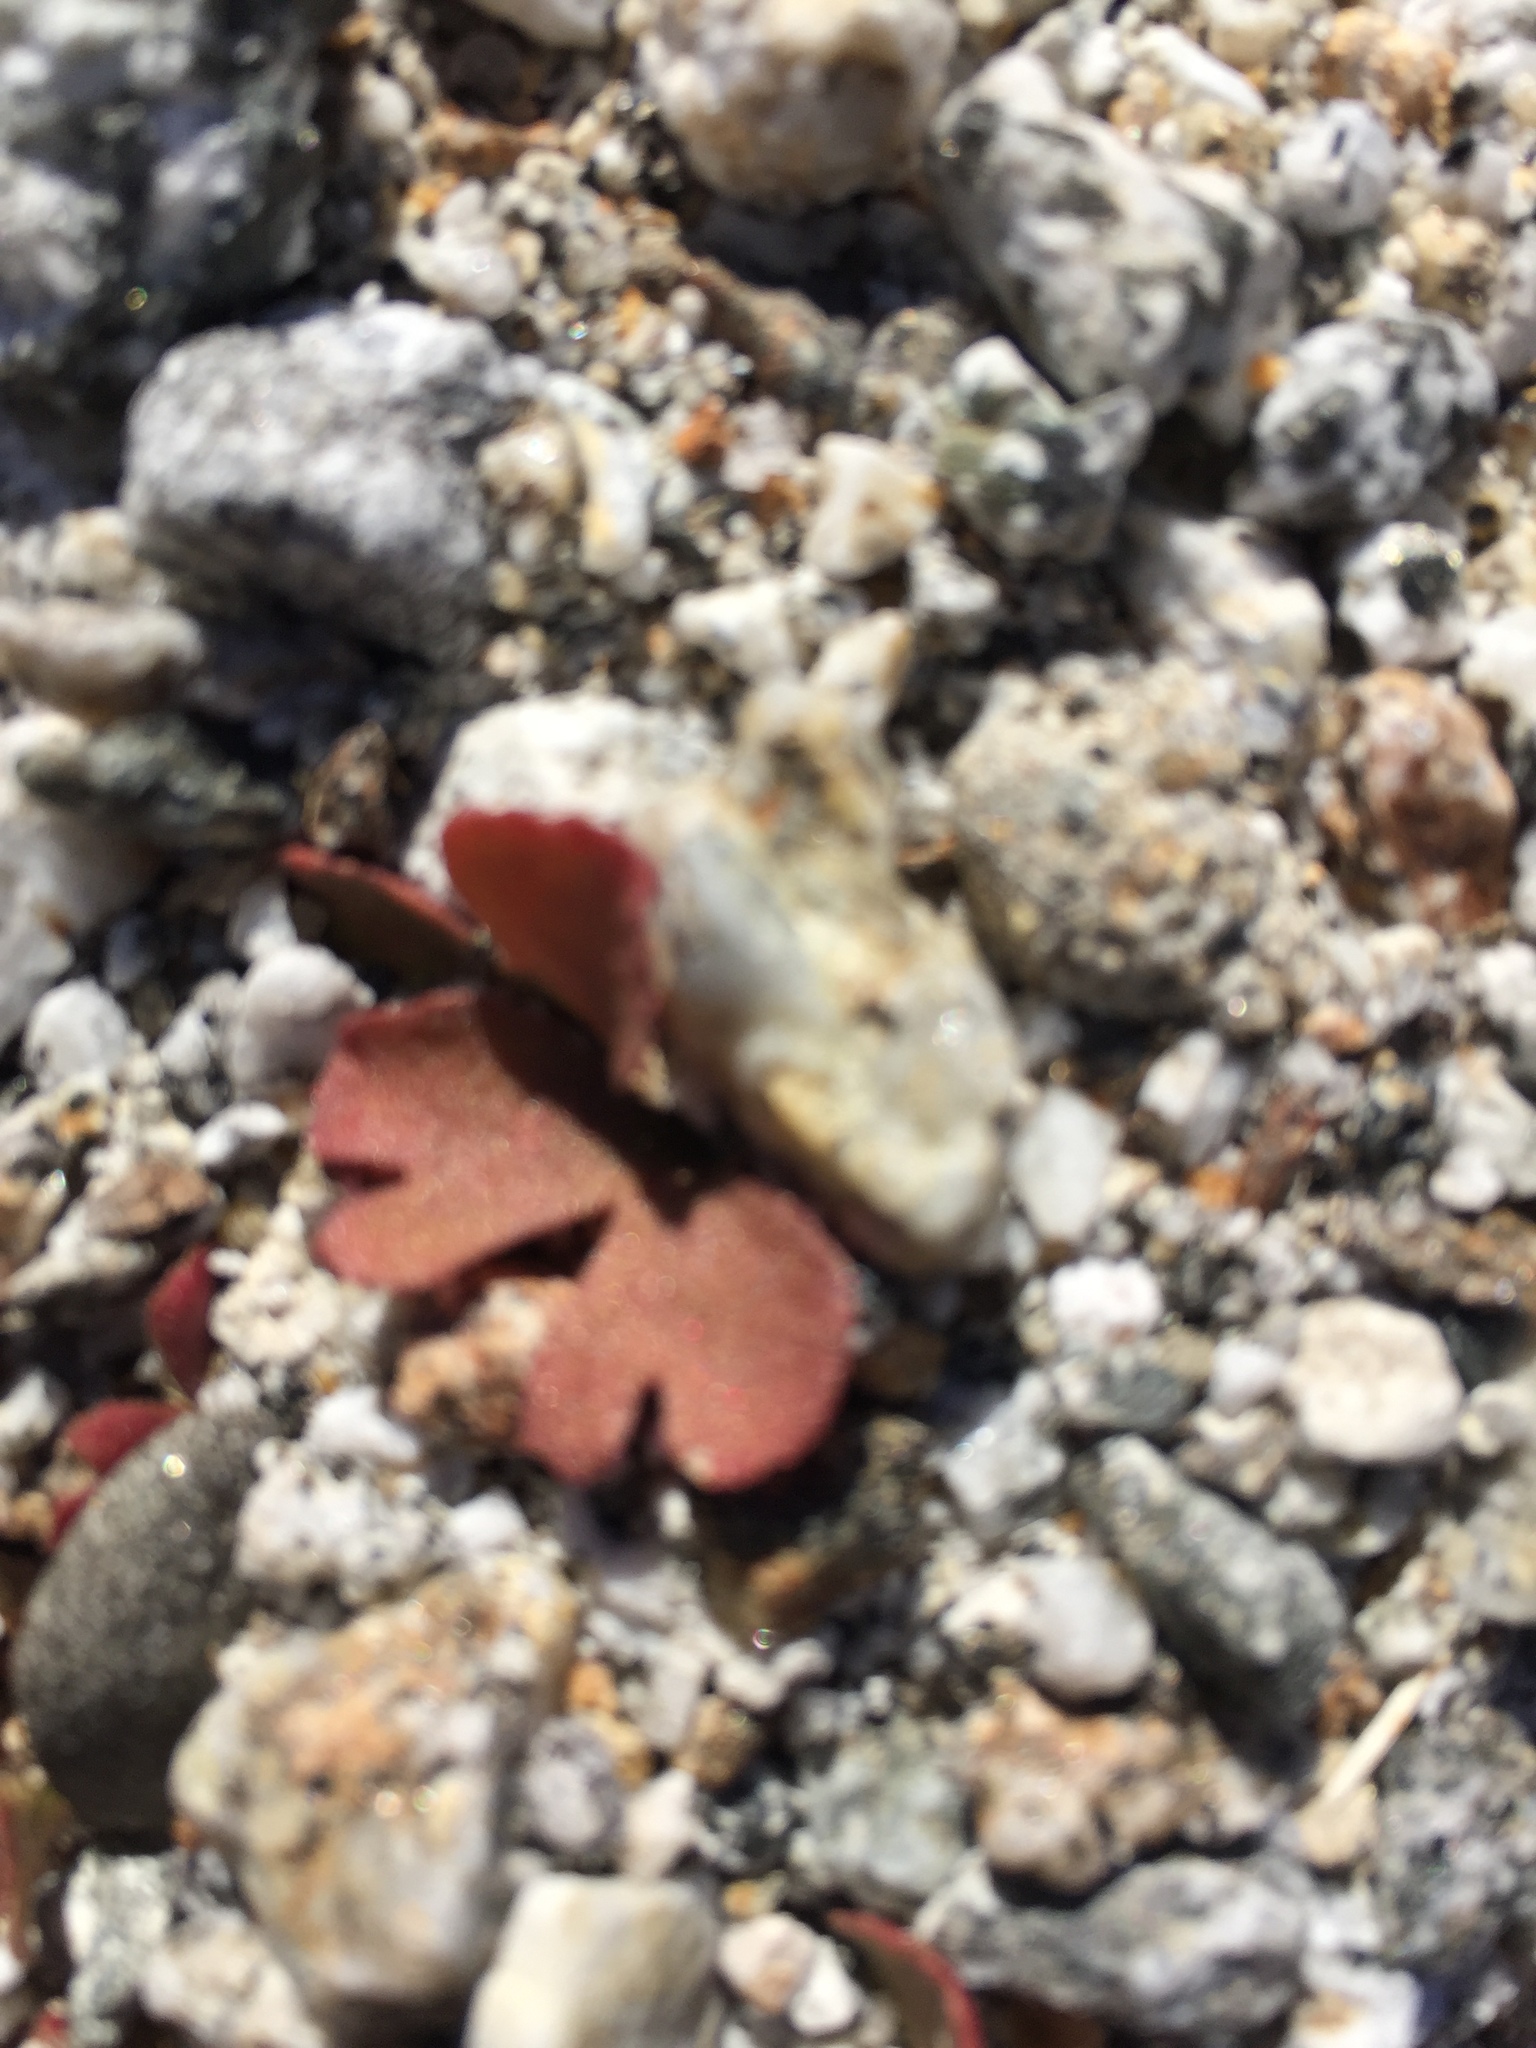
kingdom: Plantae
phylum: Tracheophyta
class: Magnoliopsida
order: Caryophyllales
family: Polygonaceae
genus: Pterostegia
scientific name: Pterostegia drymarioides
